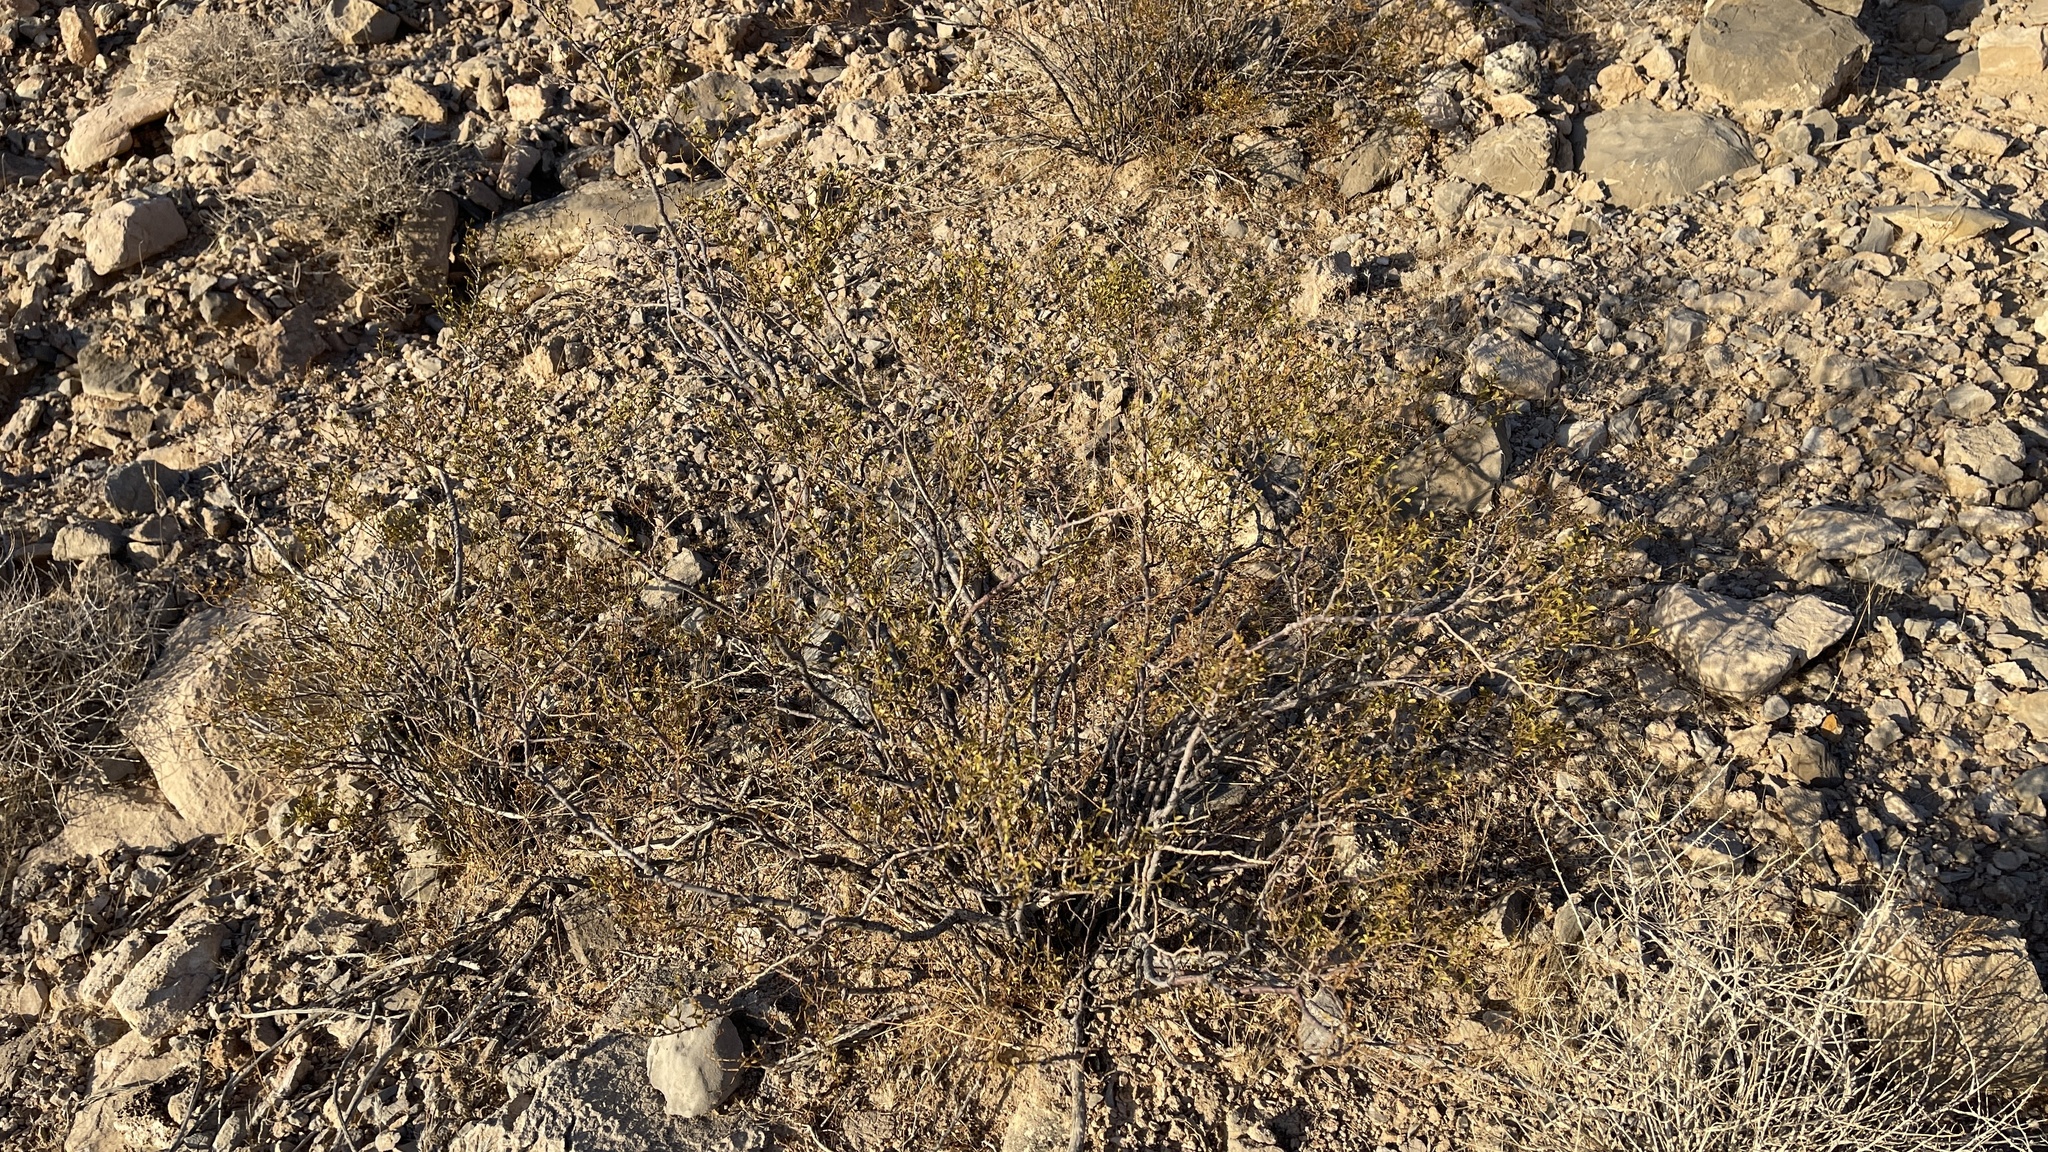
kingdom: Plantae
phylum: Tracheophyta
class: Magnoliopsida
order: Zygophyllales
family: Zygophyllaceae
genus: Larrea
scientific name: Larrea tridentata
